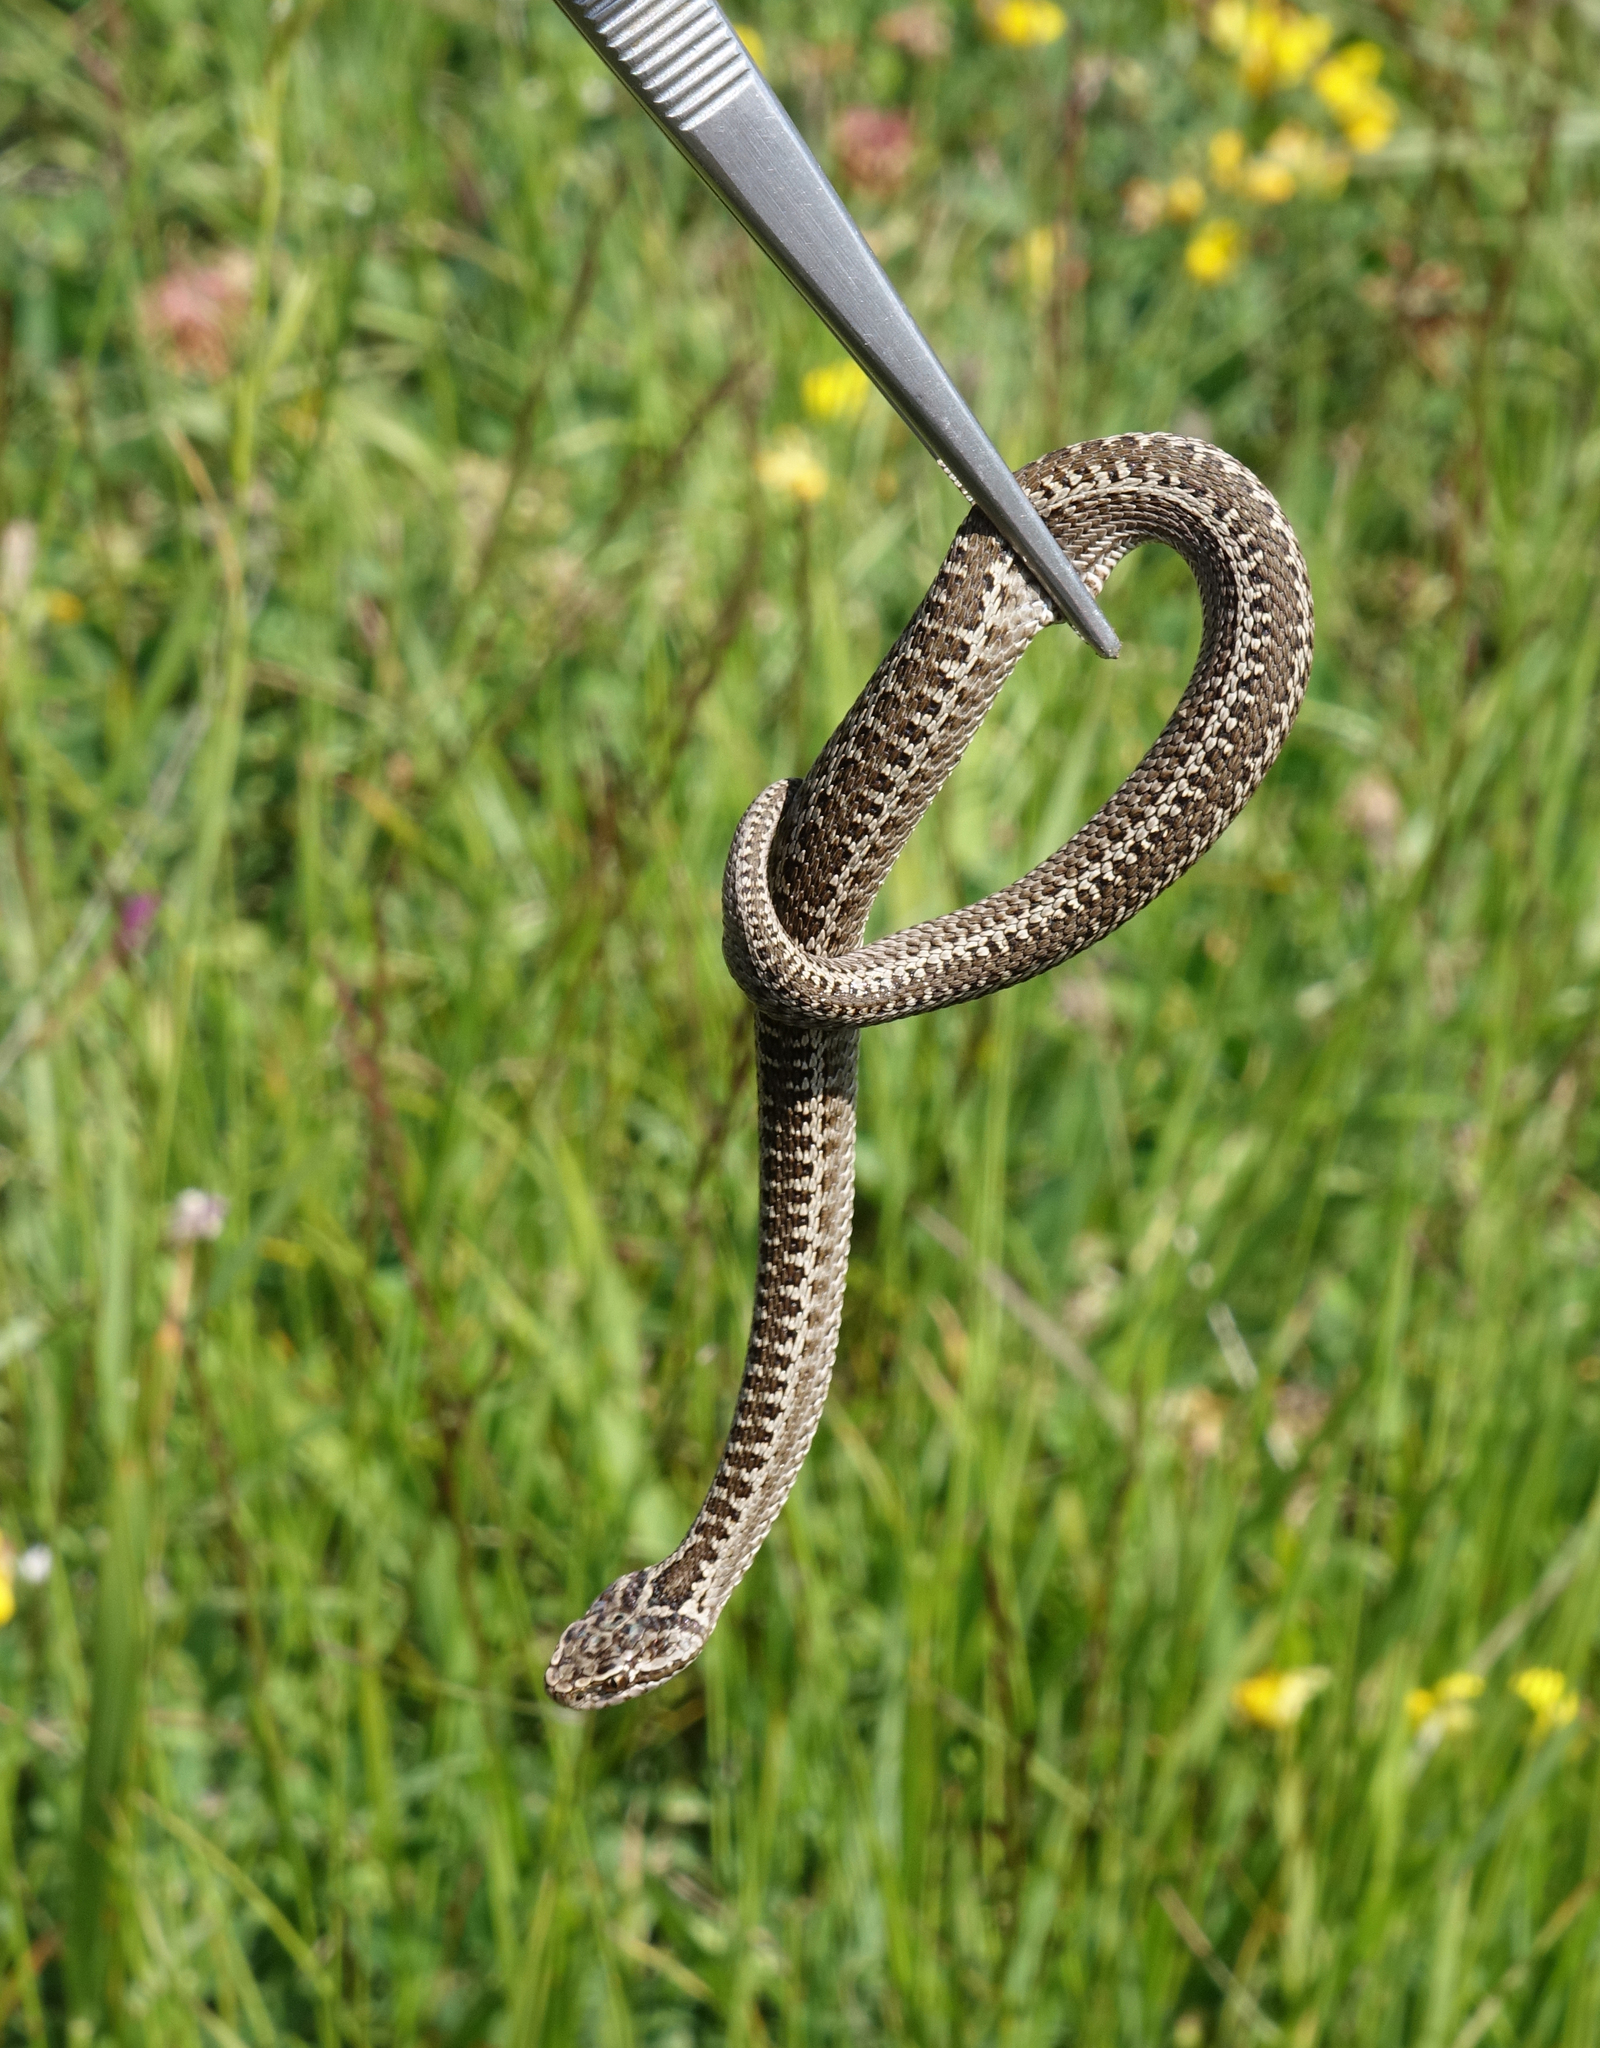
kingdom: Animalia
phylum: Chordata
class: Squamata
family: Viperidae
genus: Vipera
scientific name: Vipera dinniki
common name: Dinnik's viper
